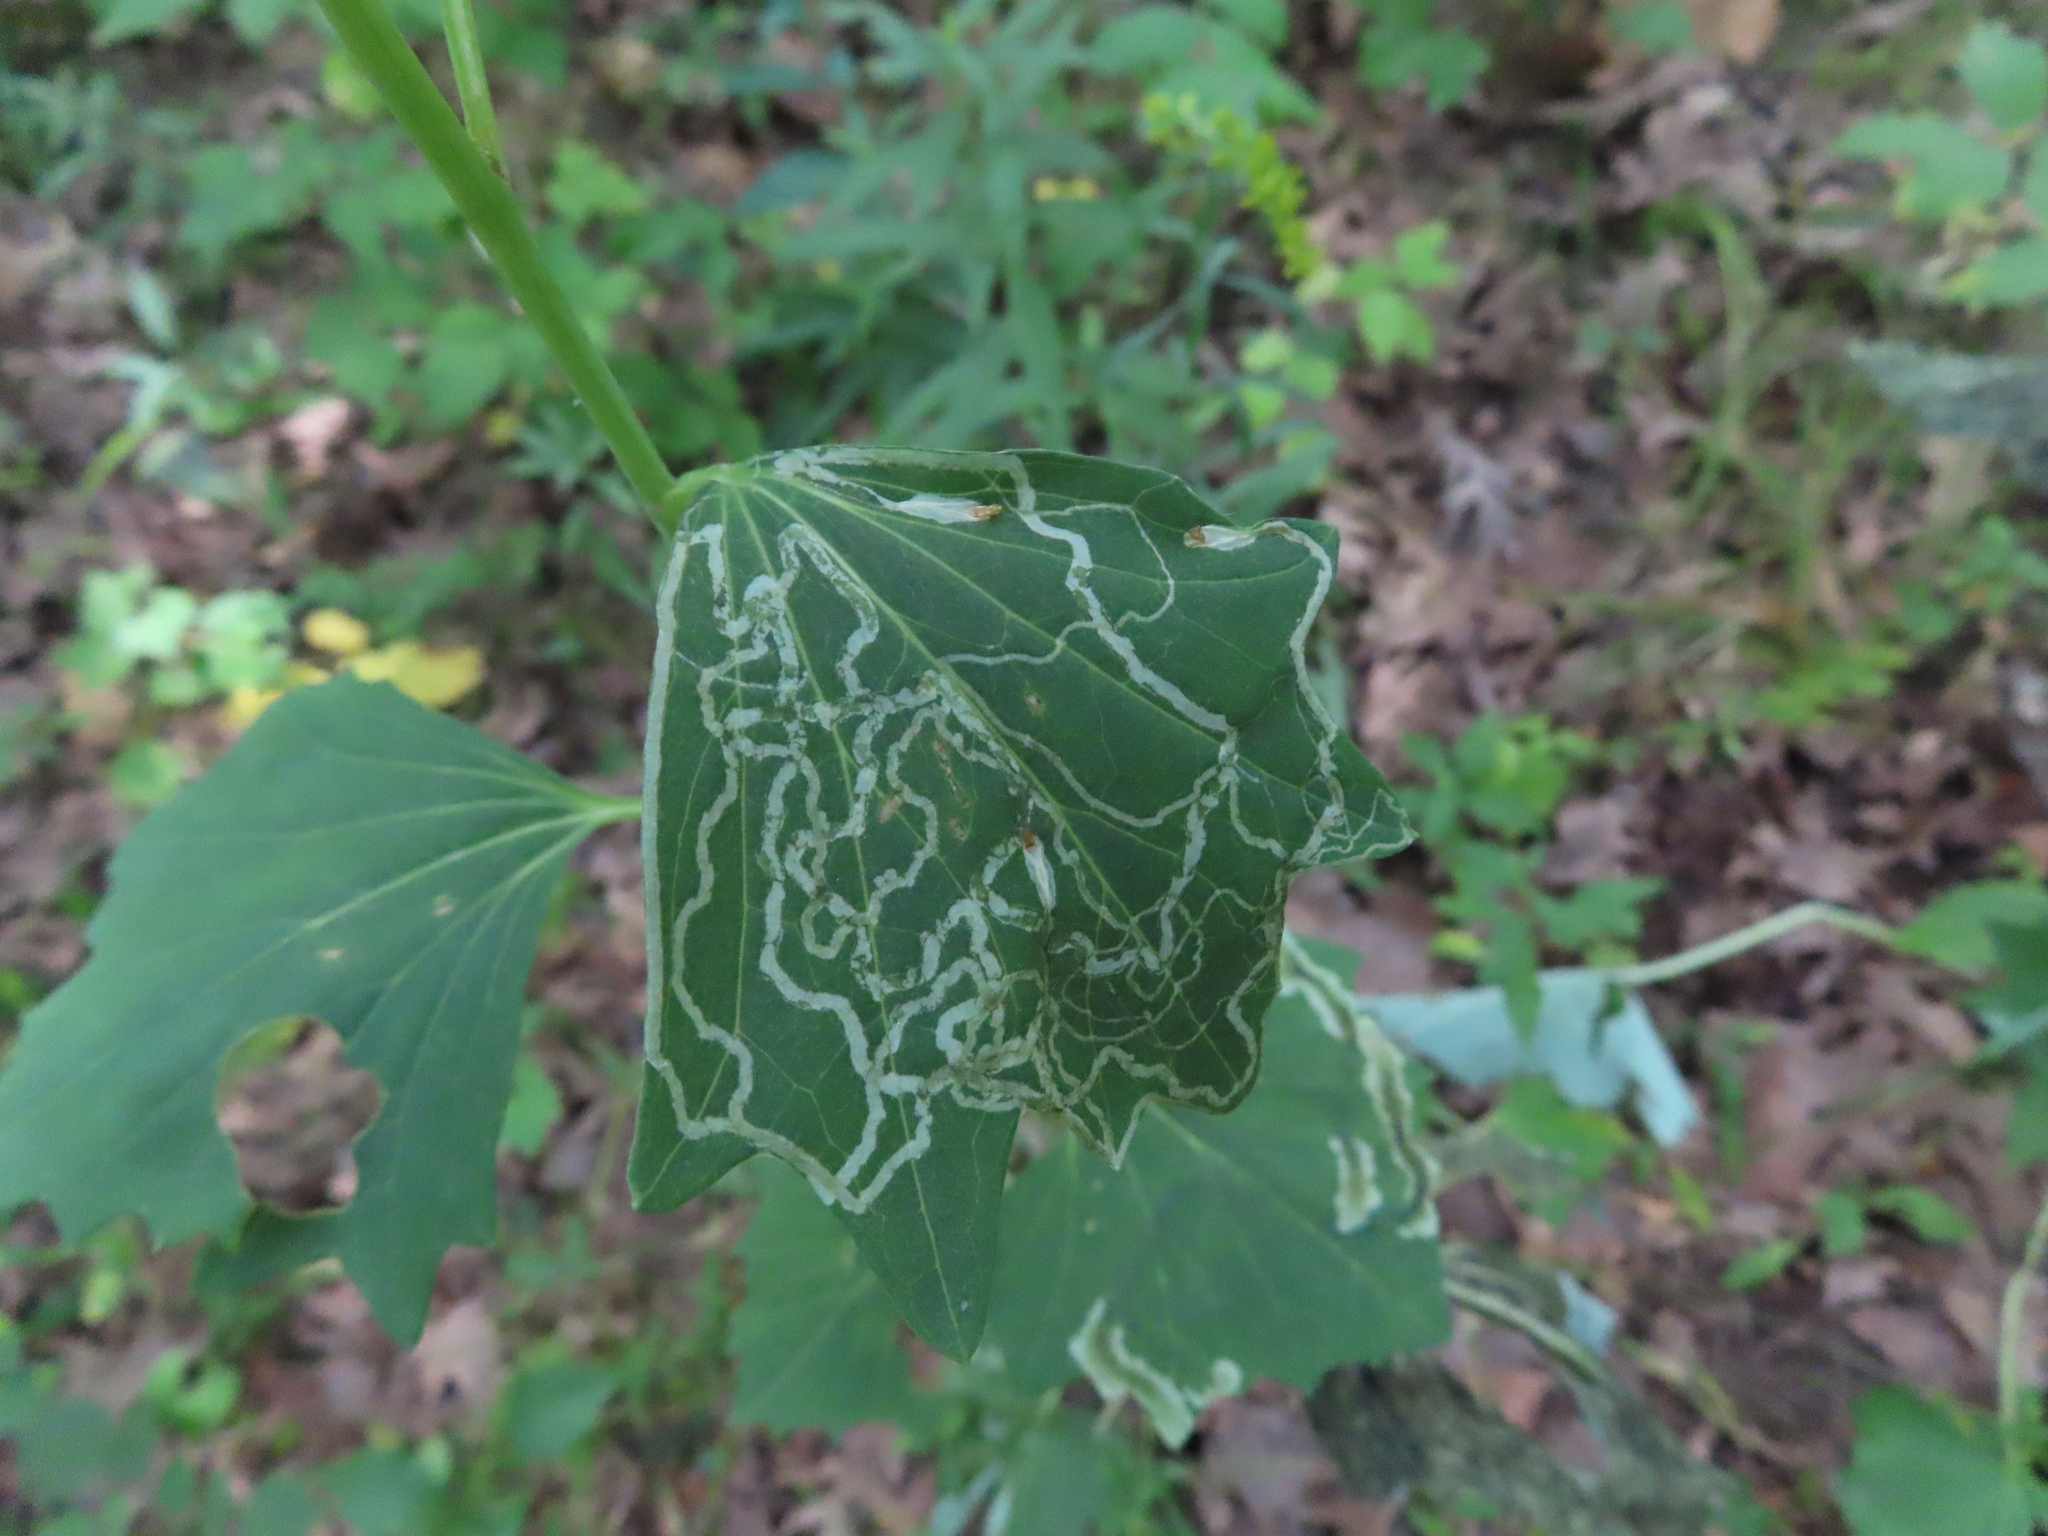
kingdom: Animalia
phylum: Arthropoda
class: Insecta
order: Lepidoptera
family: Gracillariidae
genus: Phyllocnistis
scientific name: Phyllocnistis insignis
